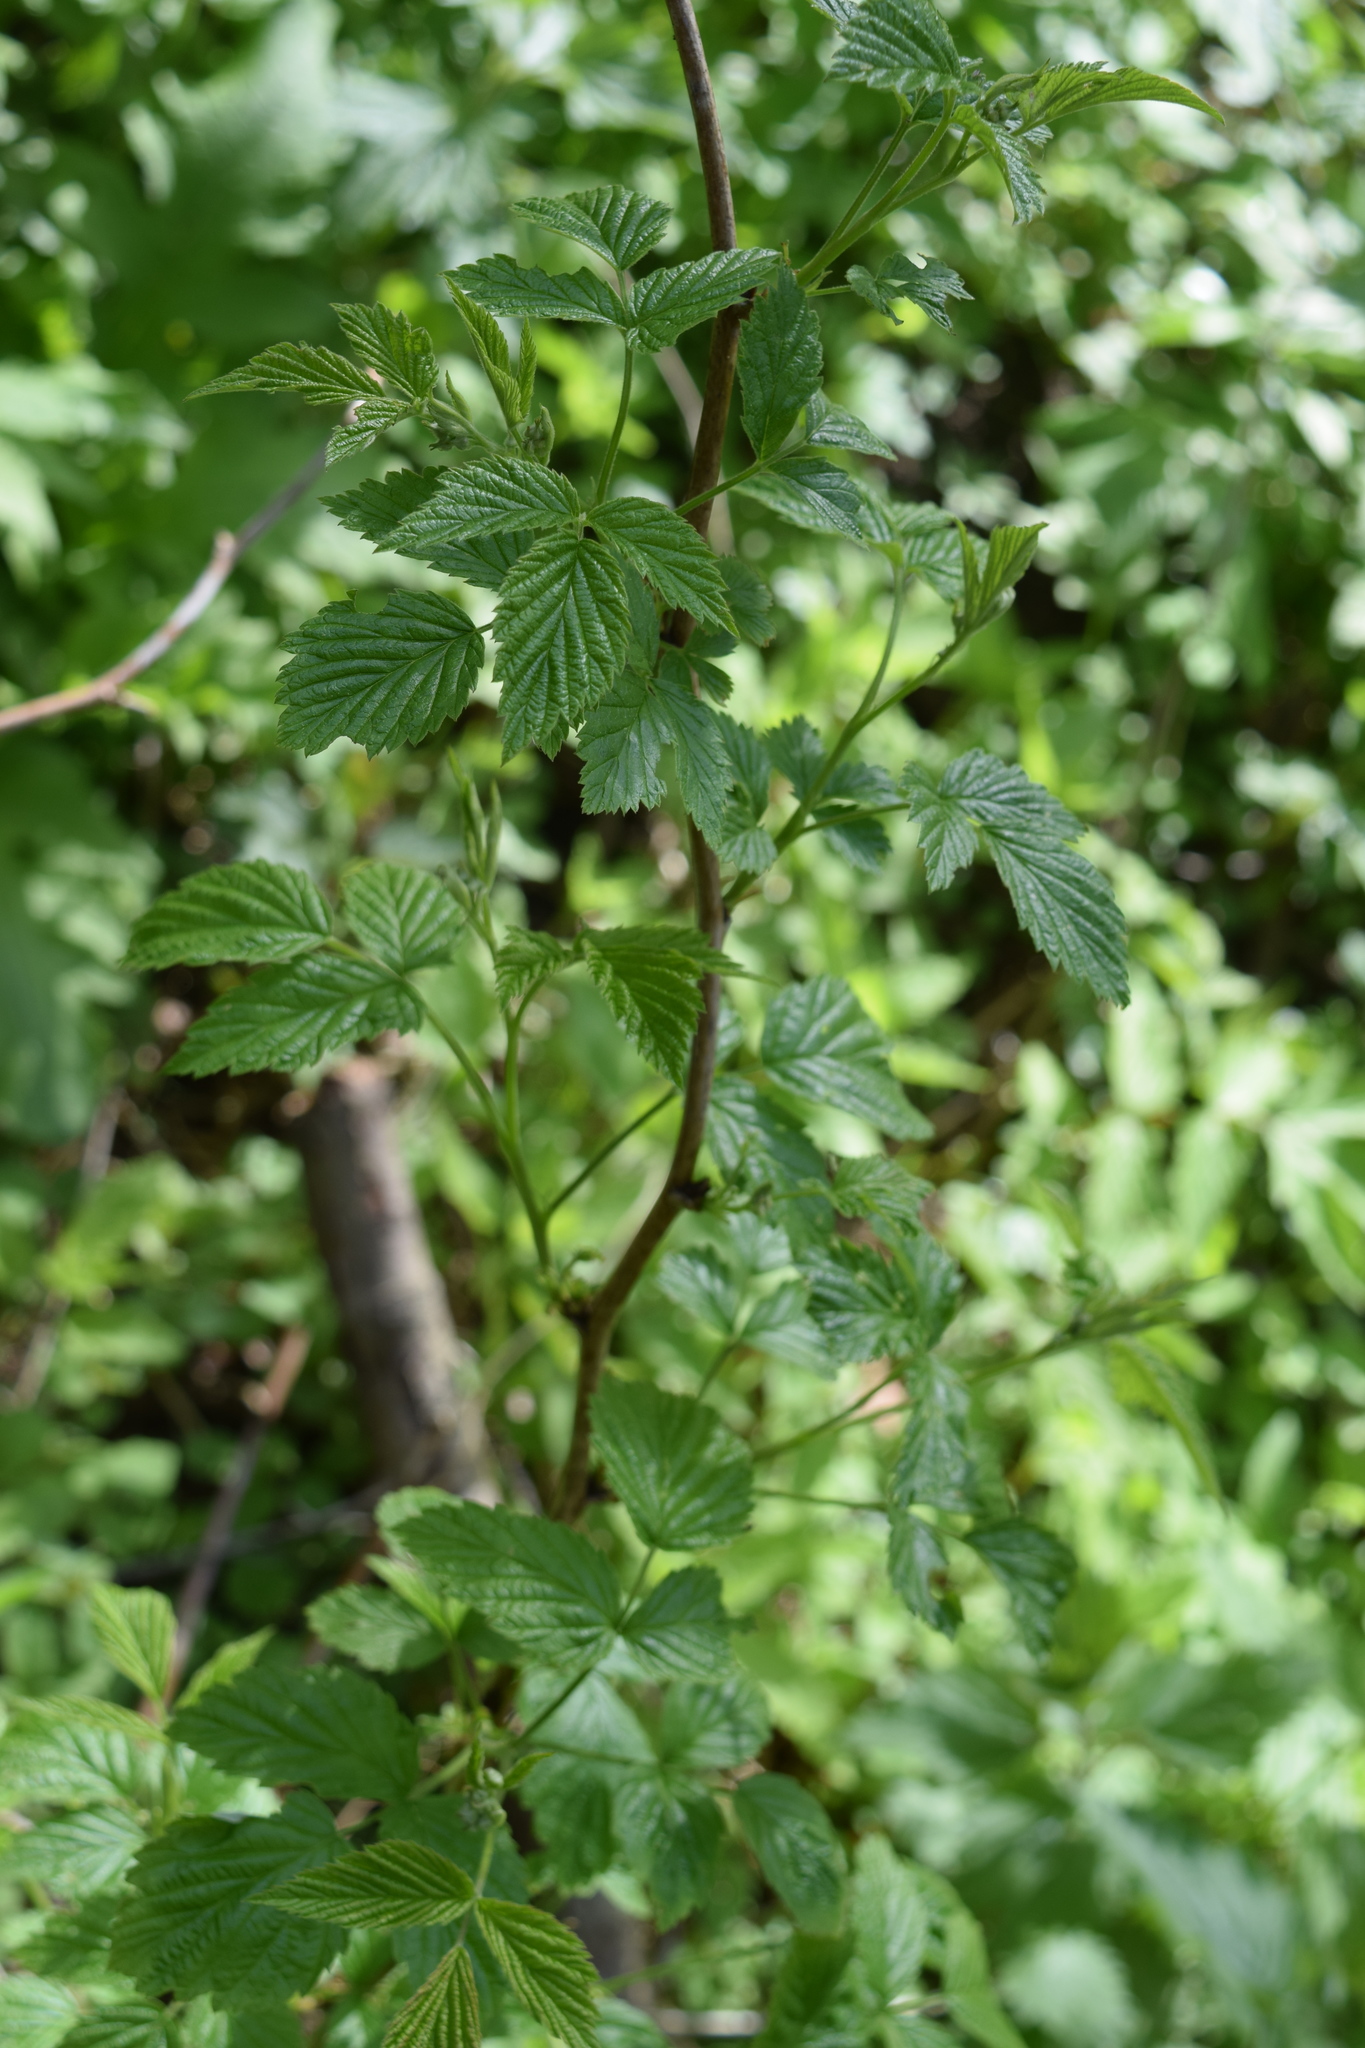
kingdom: Plantae
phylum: Tracheophyta
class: Magnoliopsida
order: Rosales
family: Rosaceae
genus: Rubus
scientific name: Rubus idaeus
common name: Raspberry
